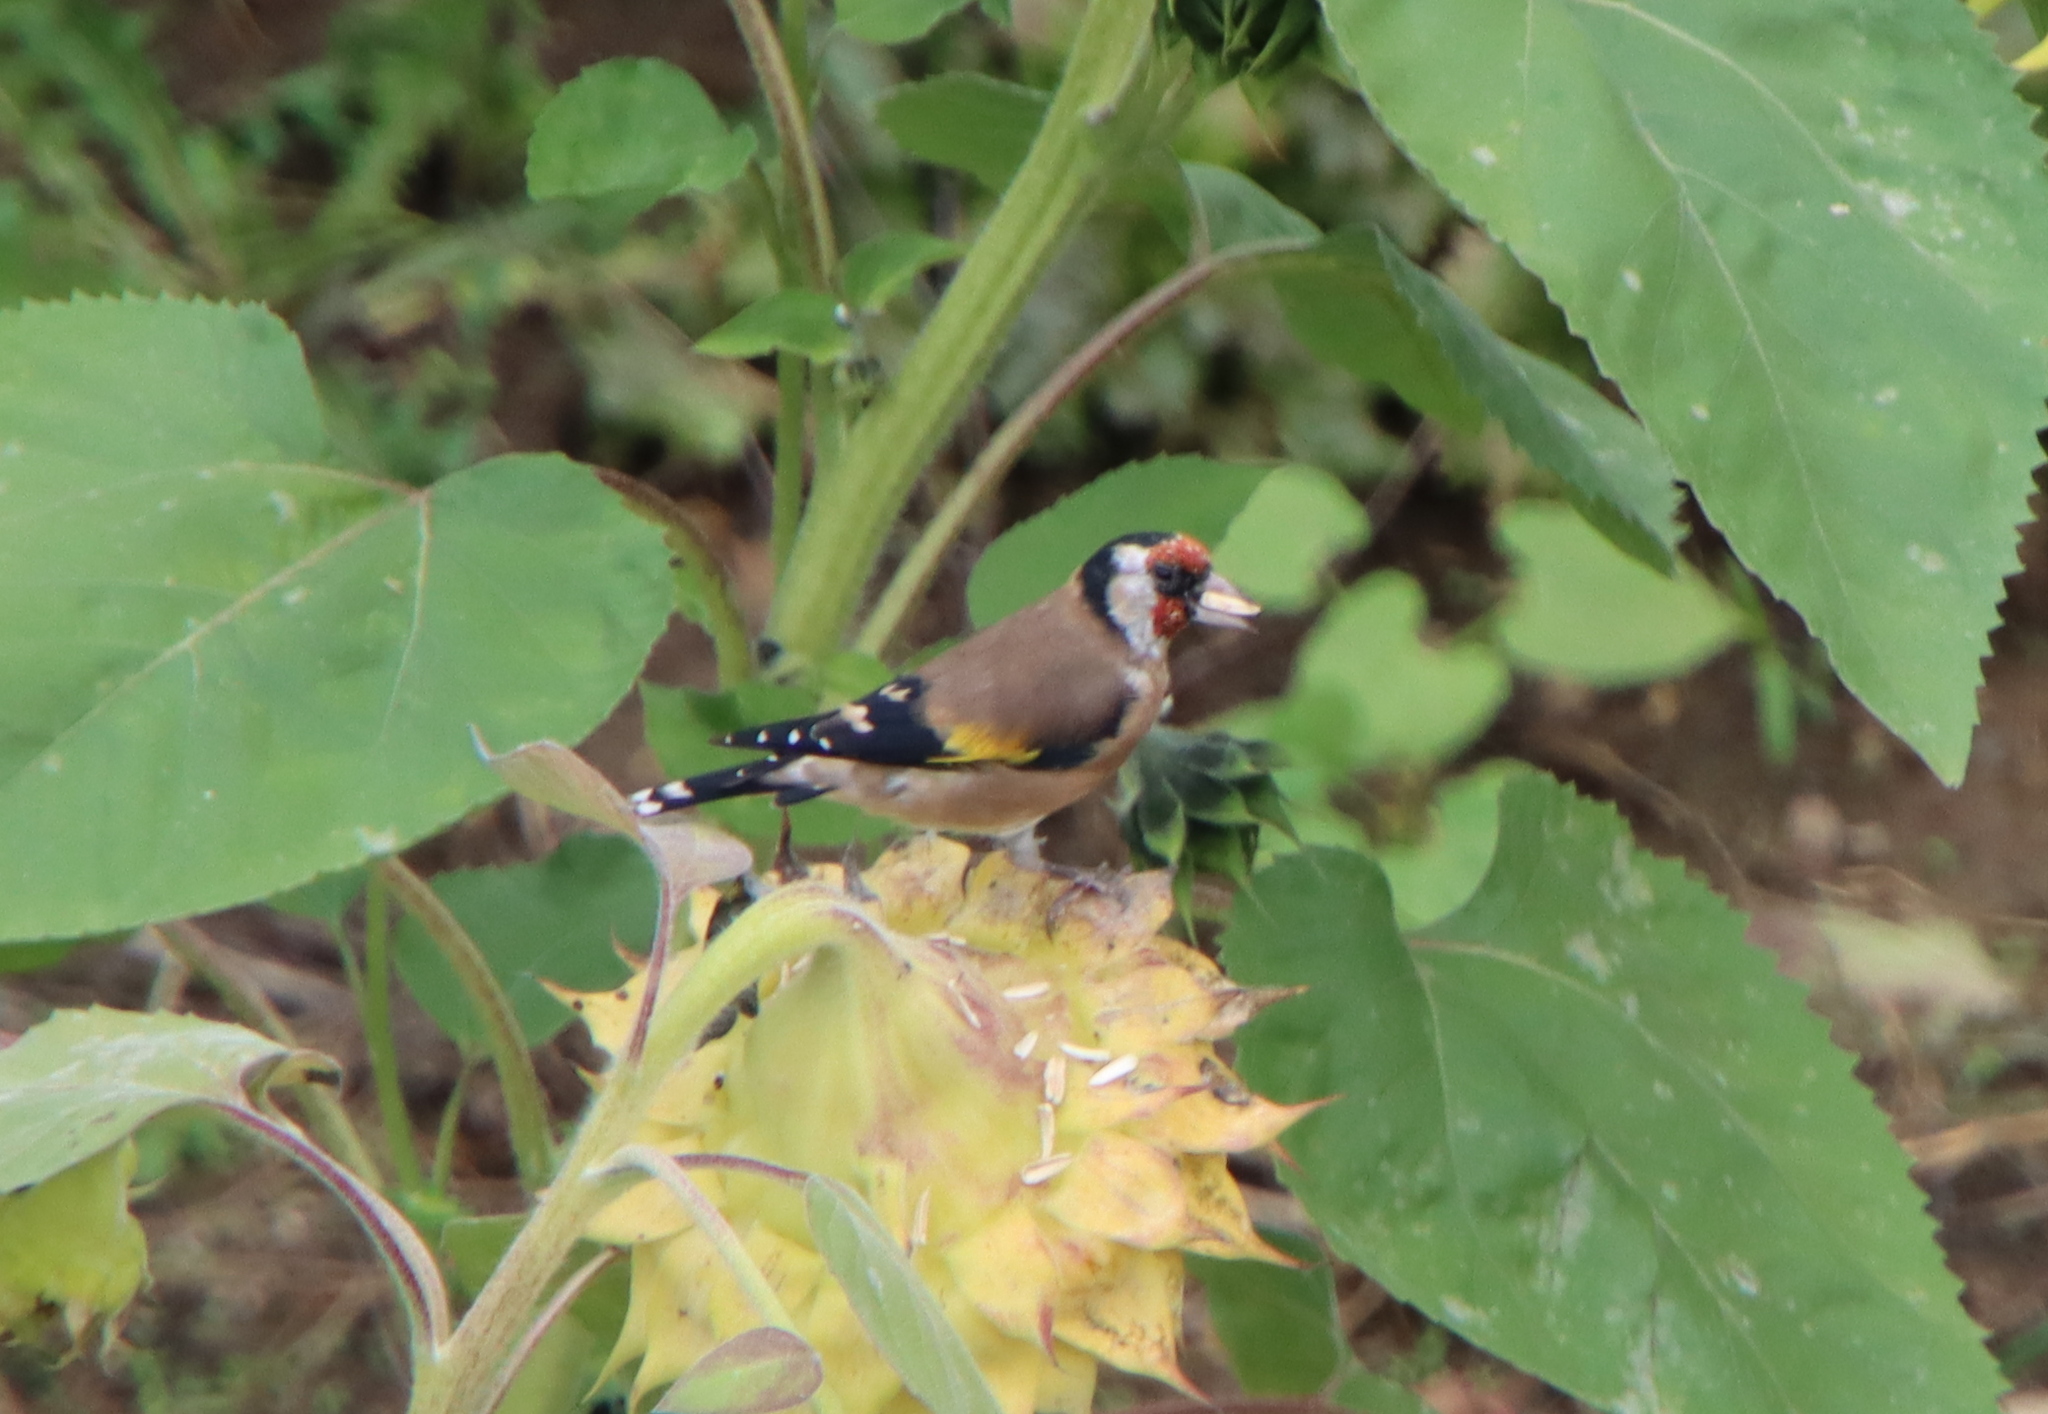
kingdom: Animalia
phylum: Chordata
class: Aves
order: Passeriformes
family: Fringillidae
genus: Carduelis
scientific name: Carduelis carduelis
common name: European goldfinch
